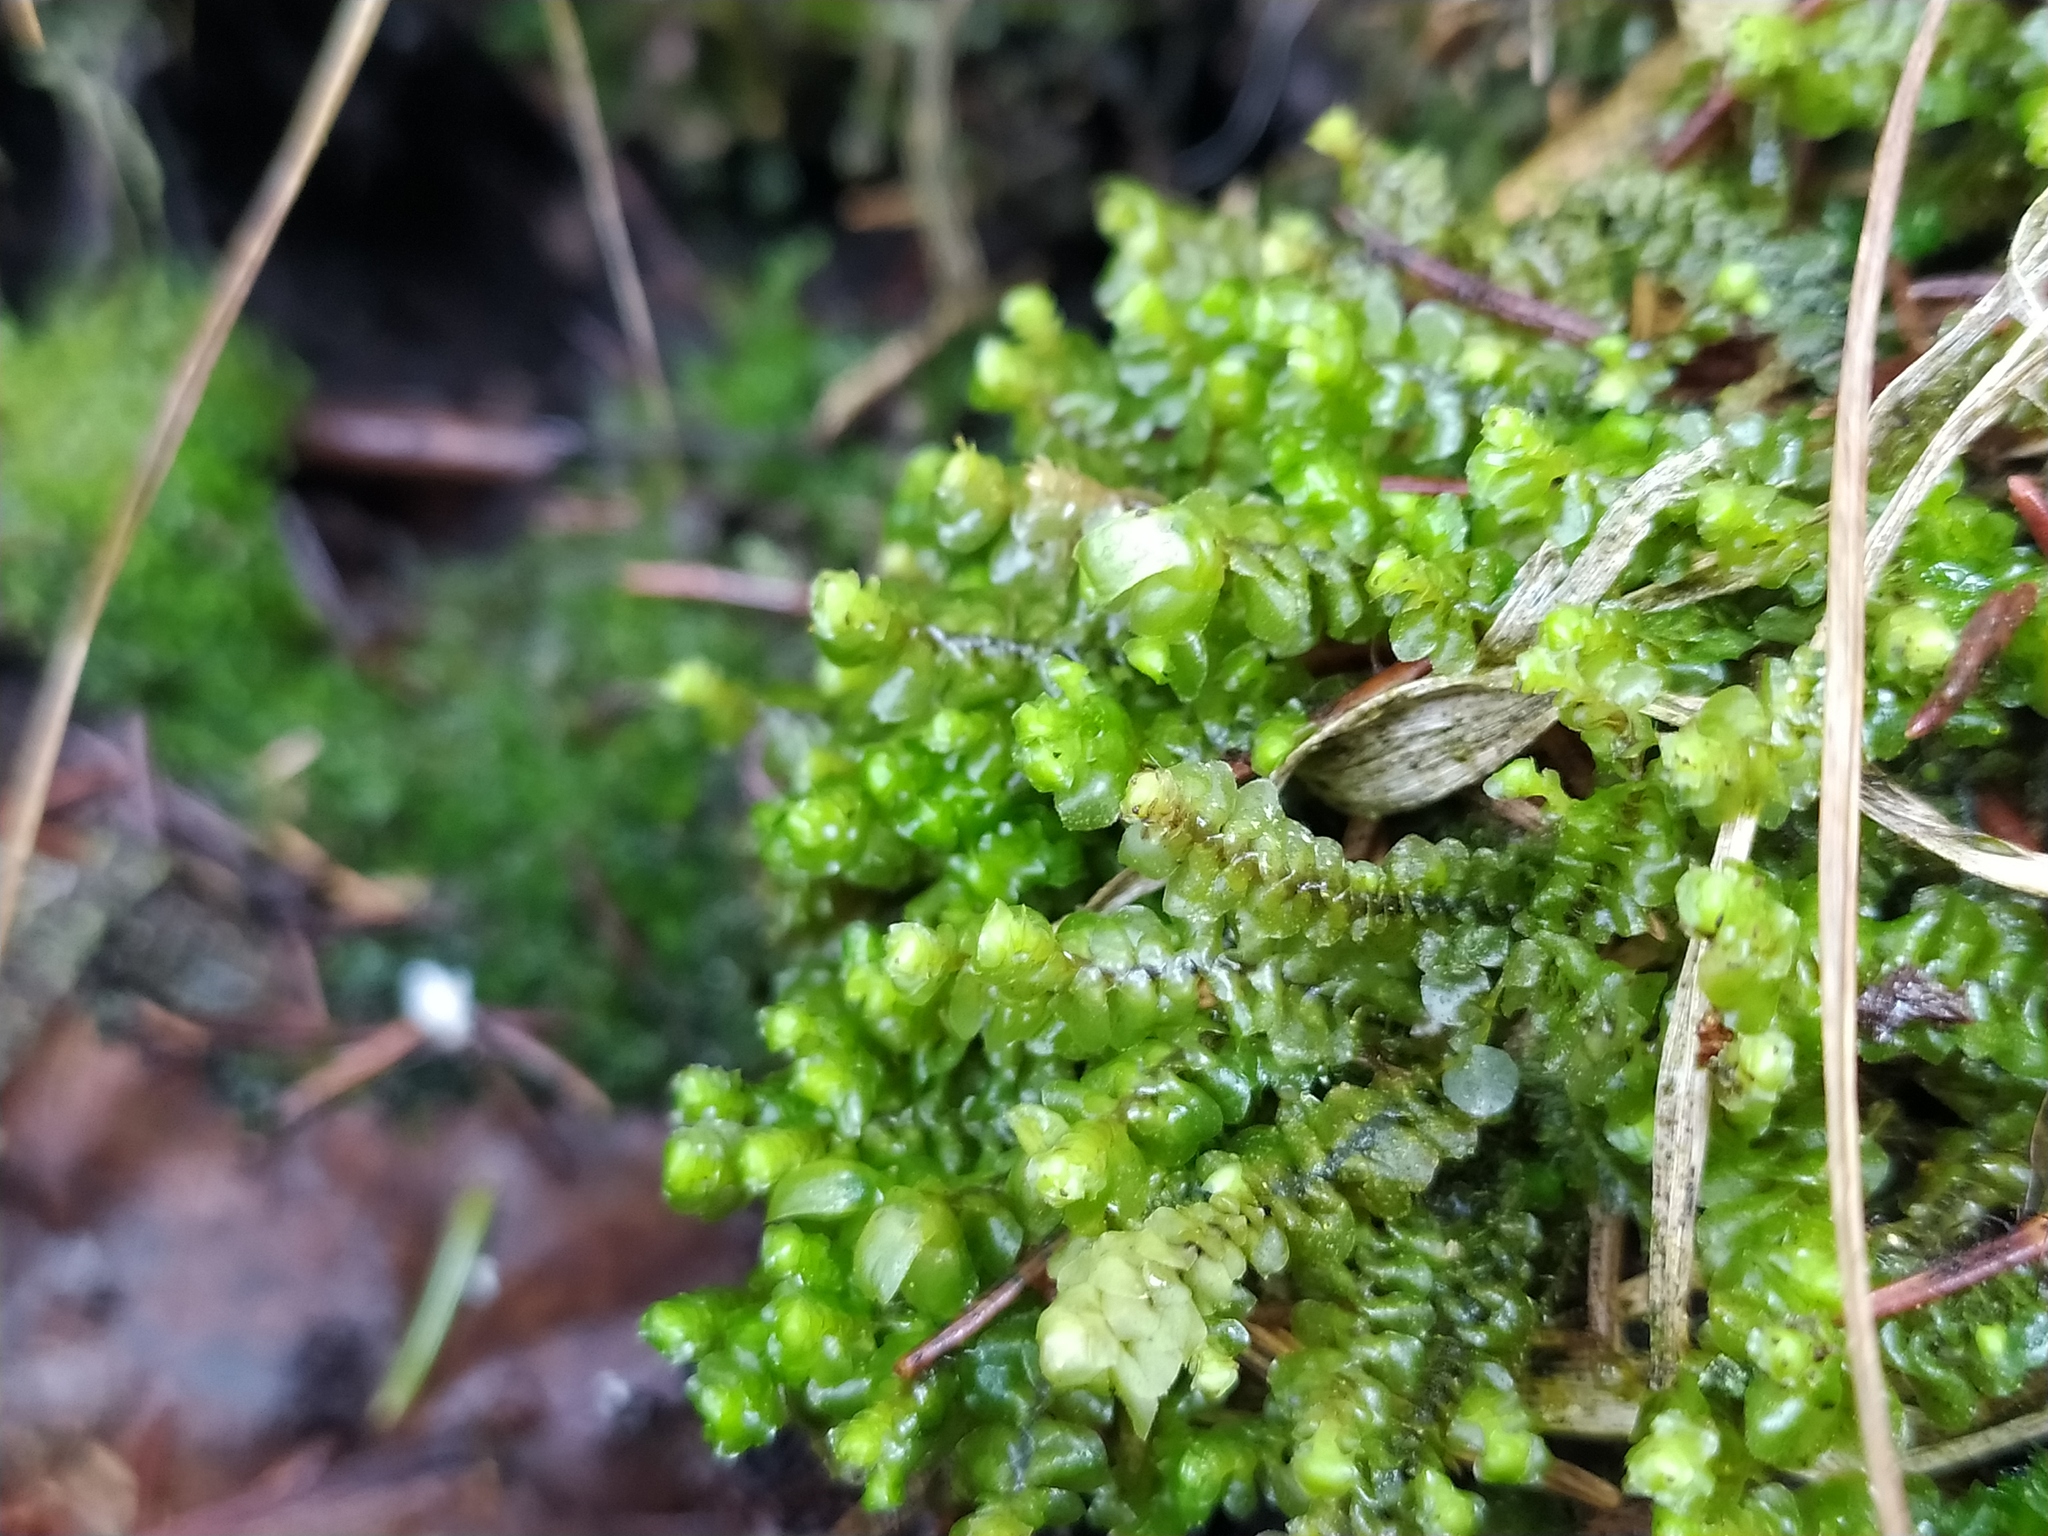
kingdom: Plantae
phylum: Marchantiophyta
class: Jungermanniopsida
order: Jungermanniales
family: Scapaniaceae
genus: Scapania
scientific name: Scapania nemorea
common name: Grove earwort
